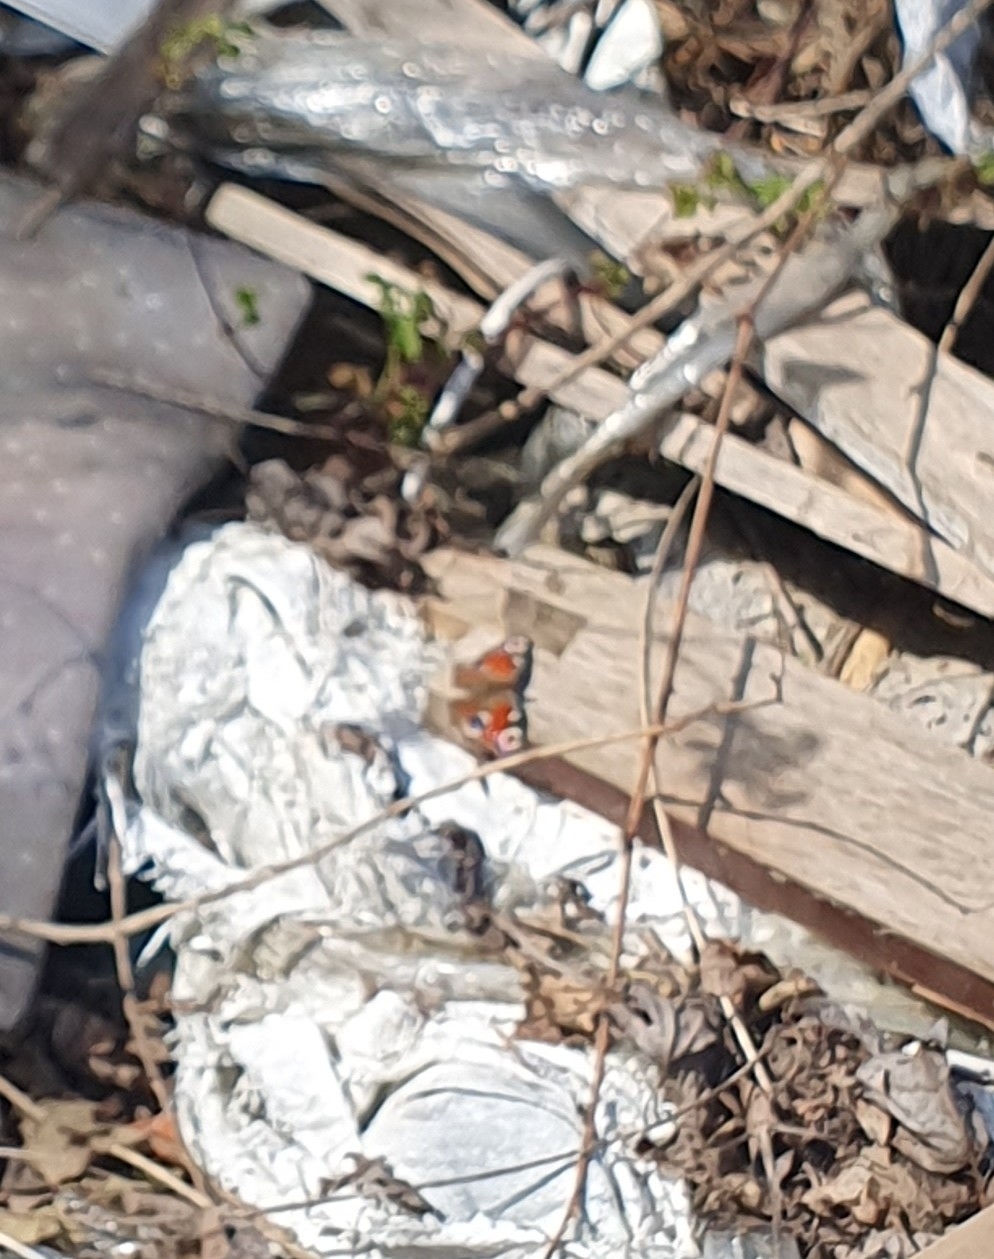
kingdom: Animalia
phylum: Arthropoda
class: Insecta
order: Lepidoptera
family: Nymphalidae
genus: Aglais
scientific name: Aglais io
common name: Peacock
